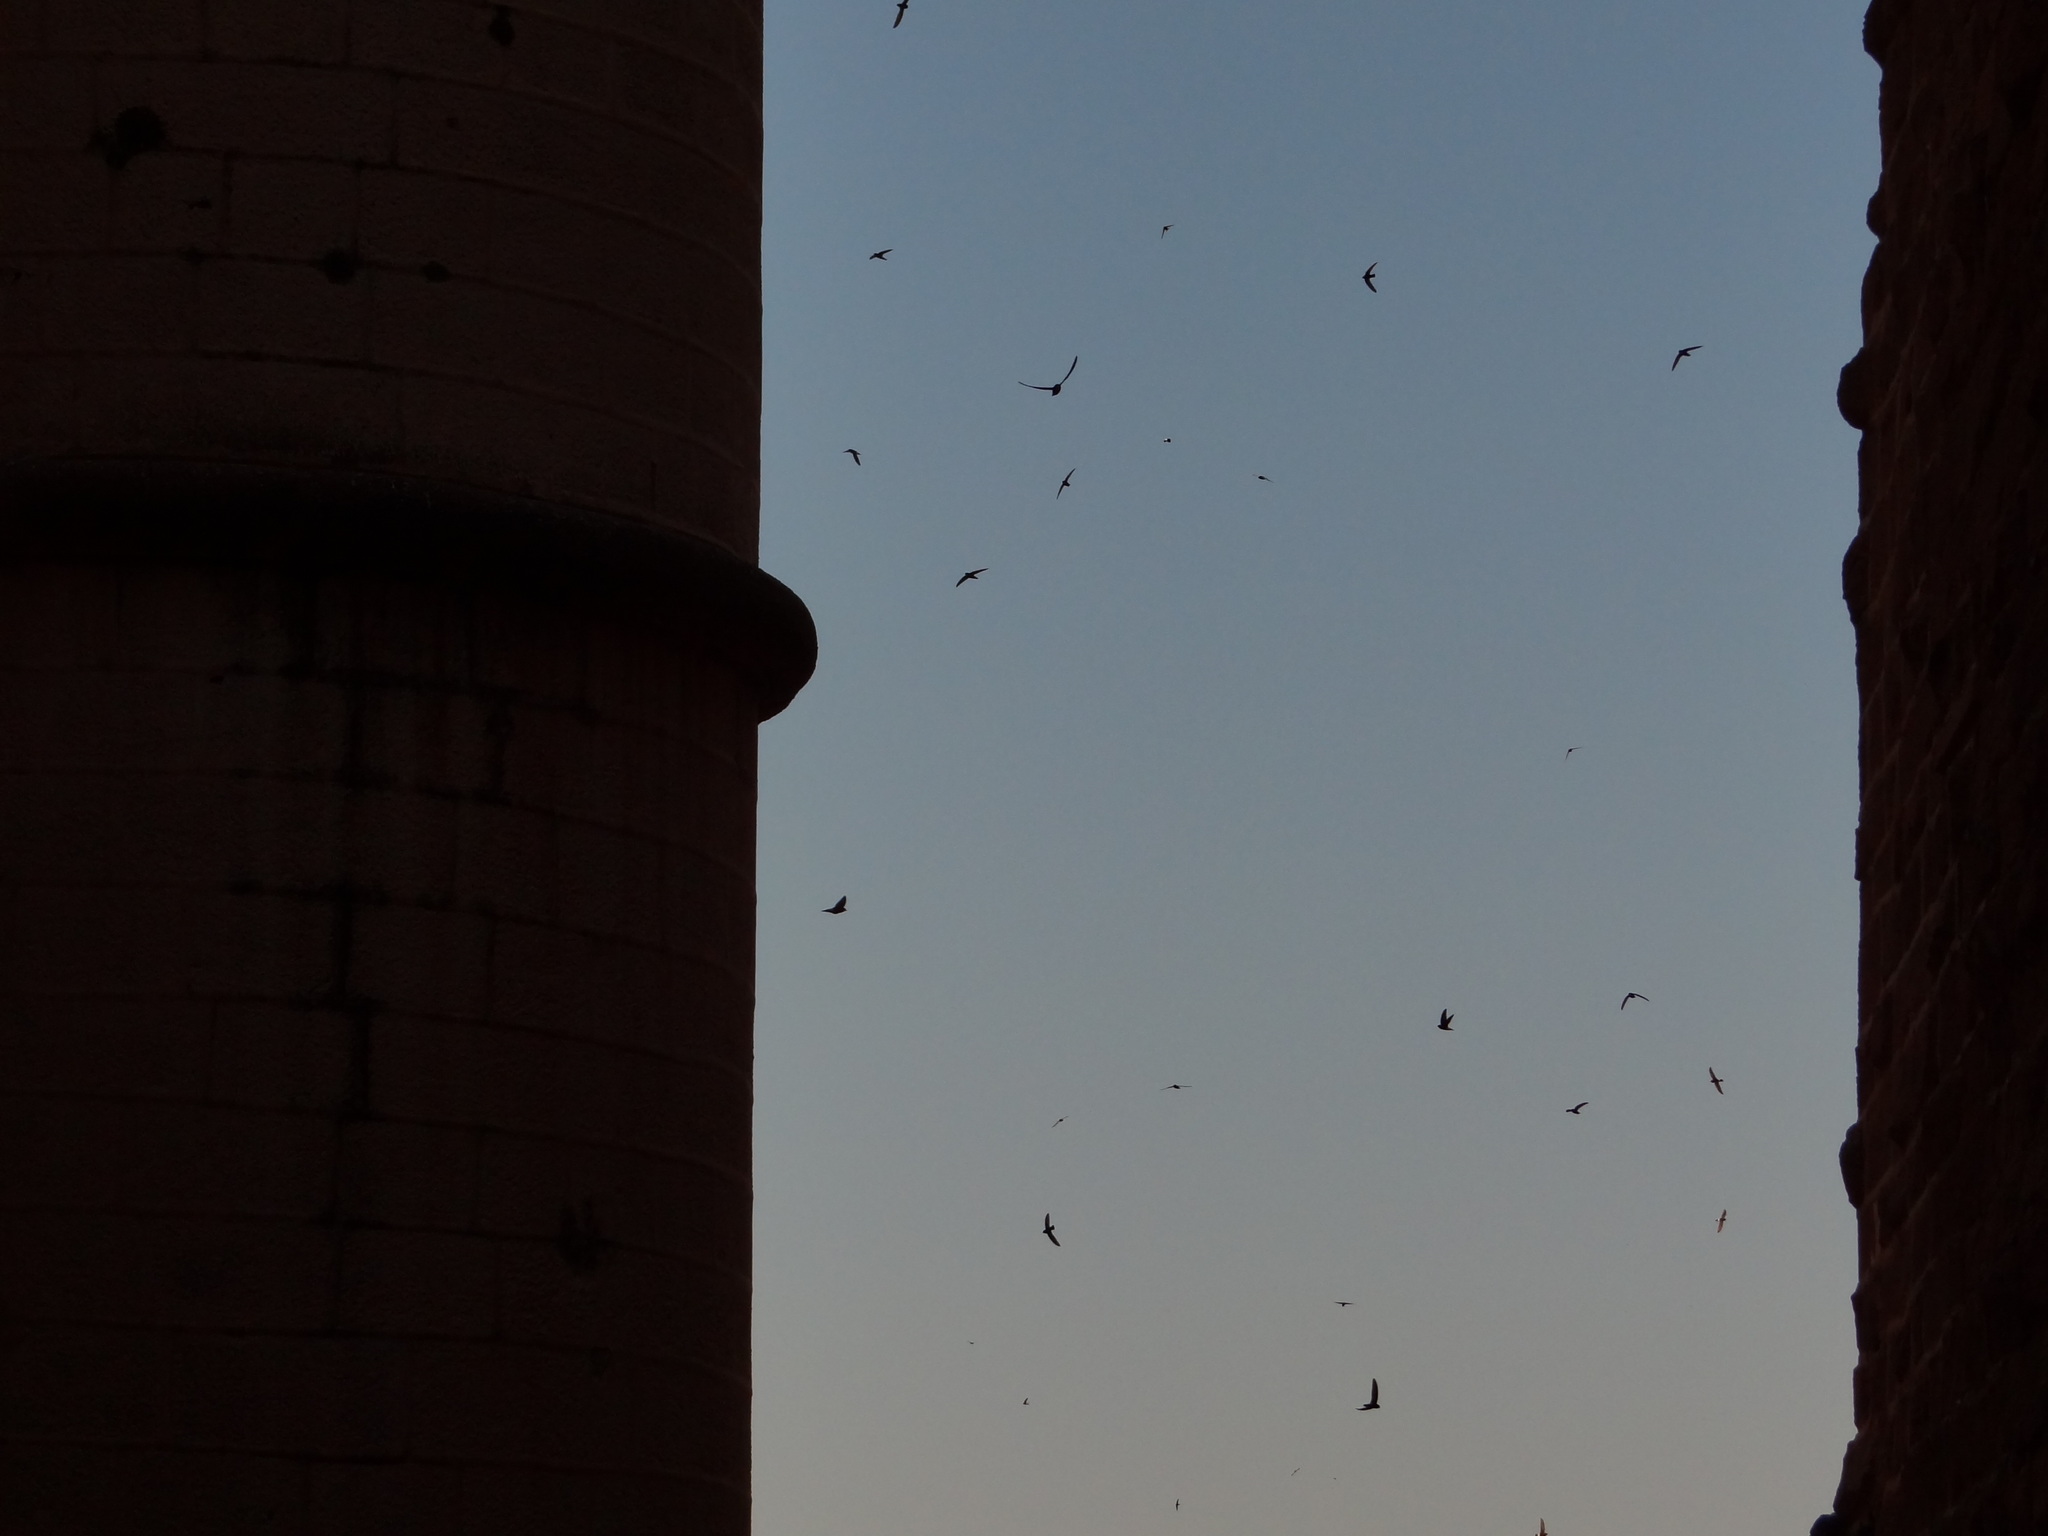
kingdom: Animalia
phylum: Chordata
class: Aves
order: Apodiformes
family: Apodidae
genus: Apus
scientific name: Apus affinis
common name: Little swift
